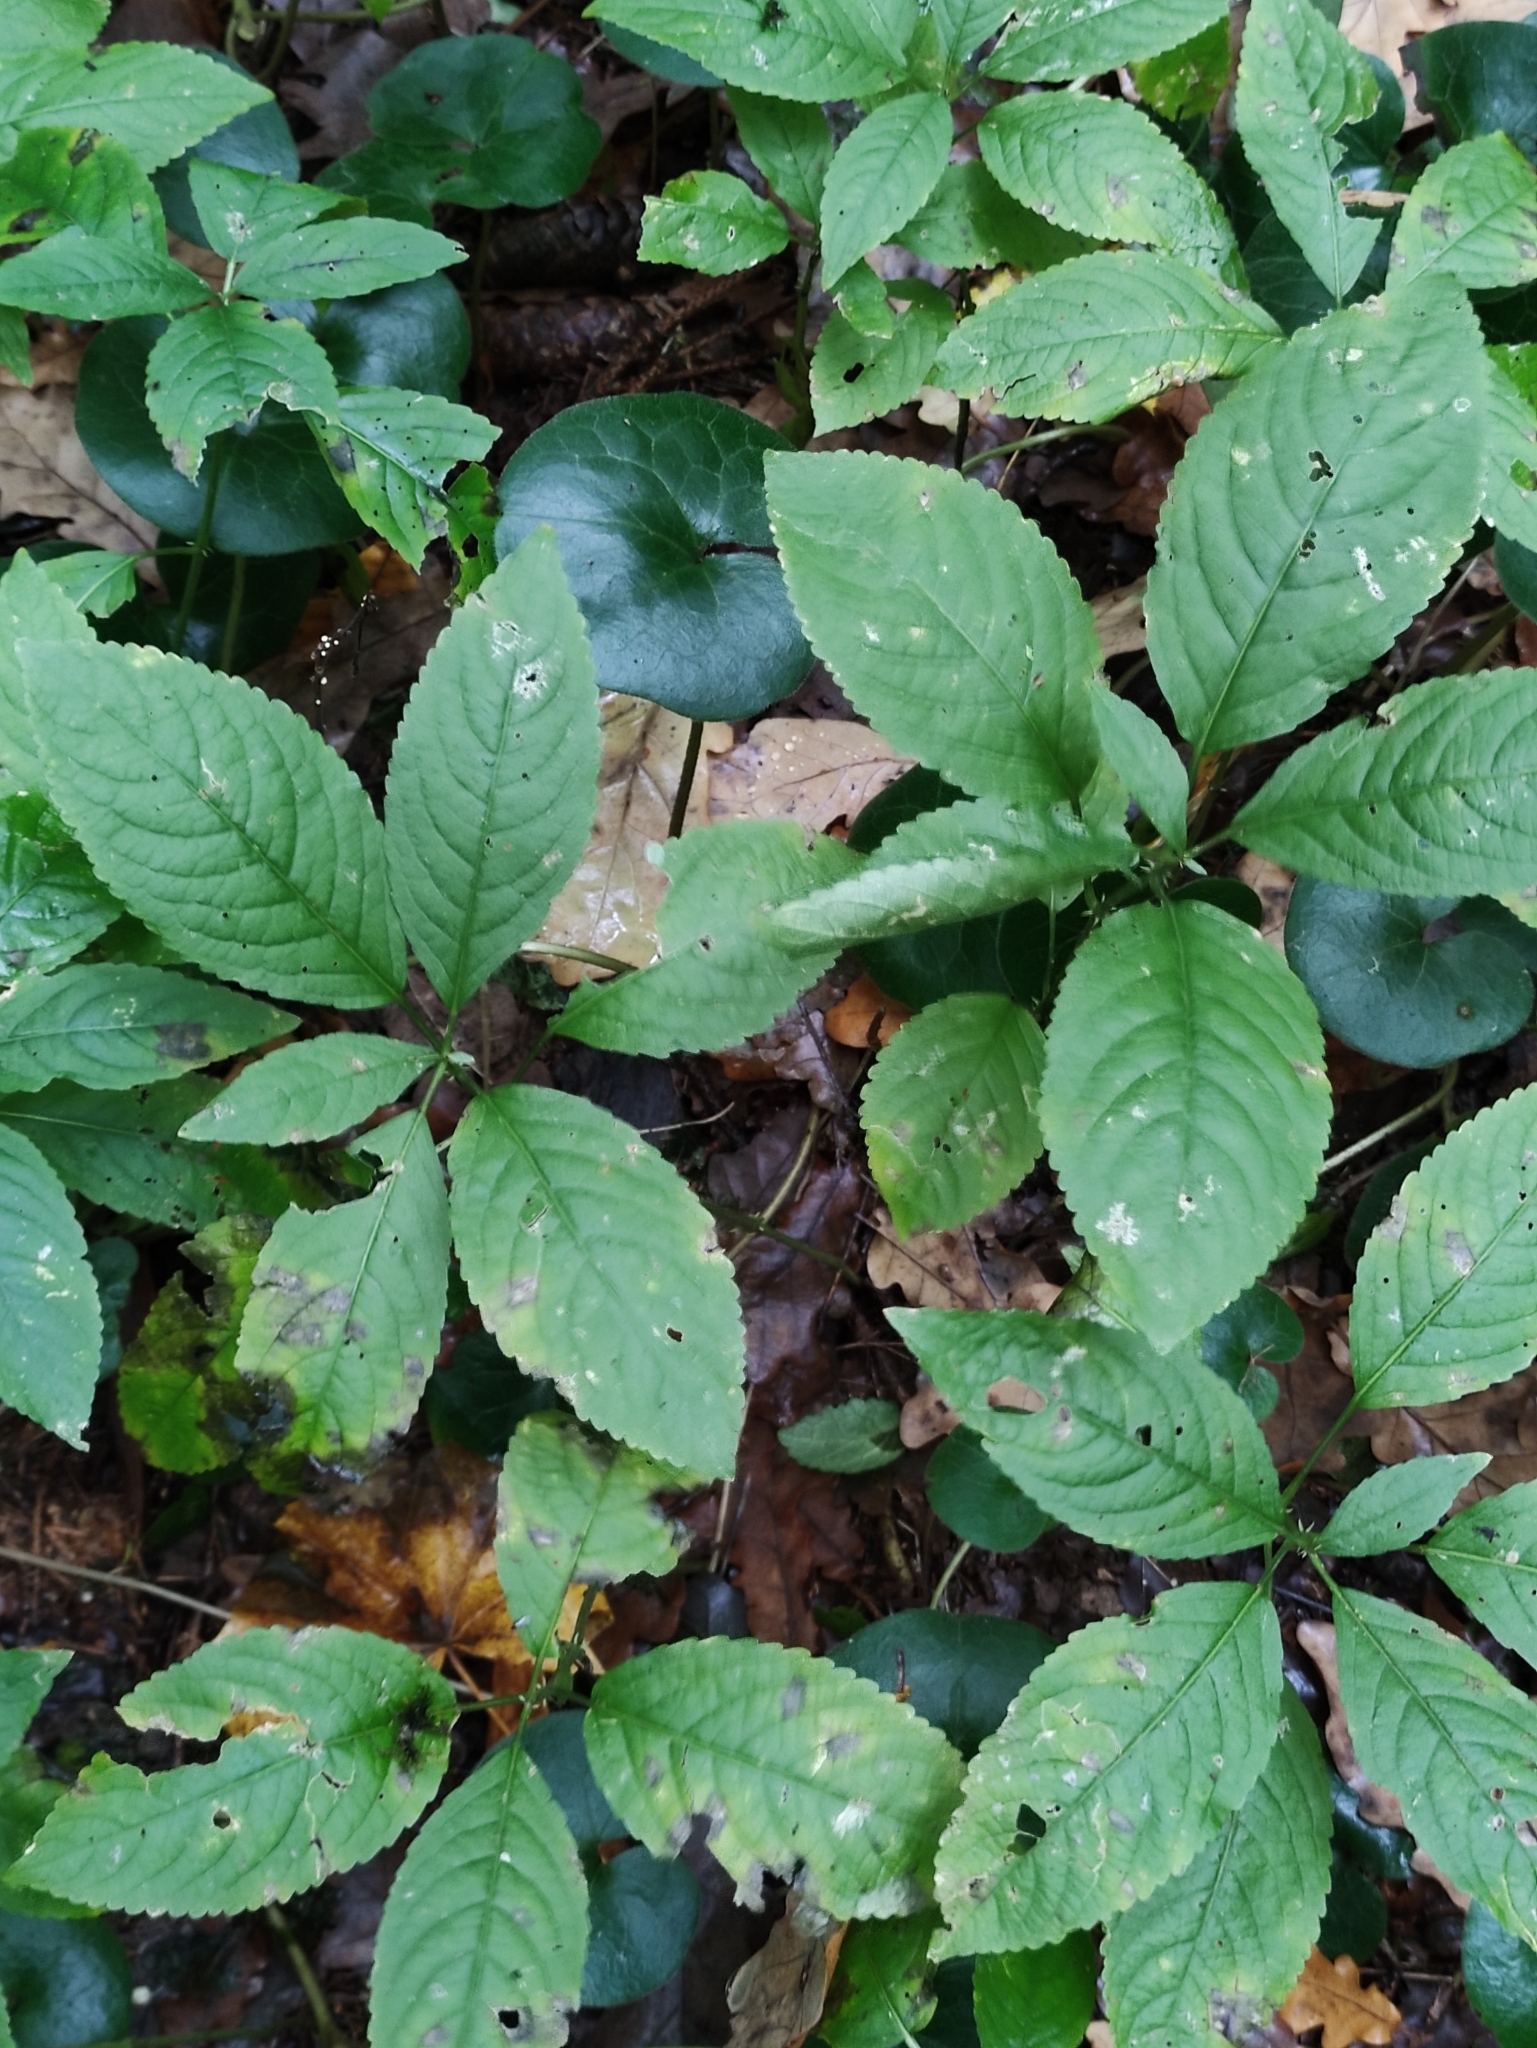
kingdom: Plantae
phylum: Tracheophyta
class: Magnoliopsida
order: Malpighiales
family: Euphorbiaceae
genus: Mercurialis
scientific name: Mercurialis perennis
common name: Dog mercury
